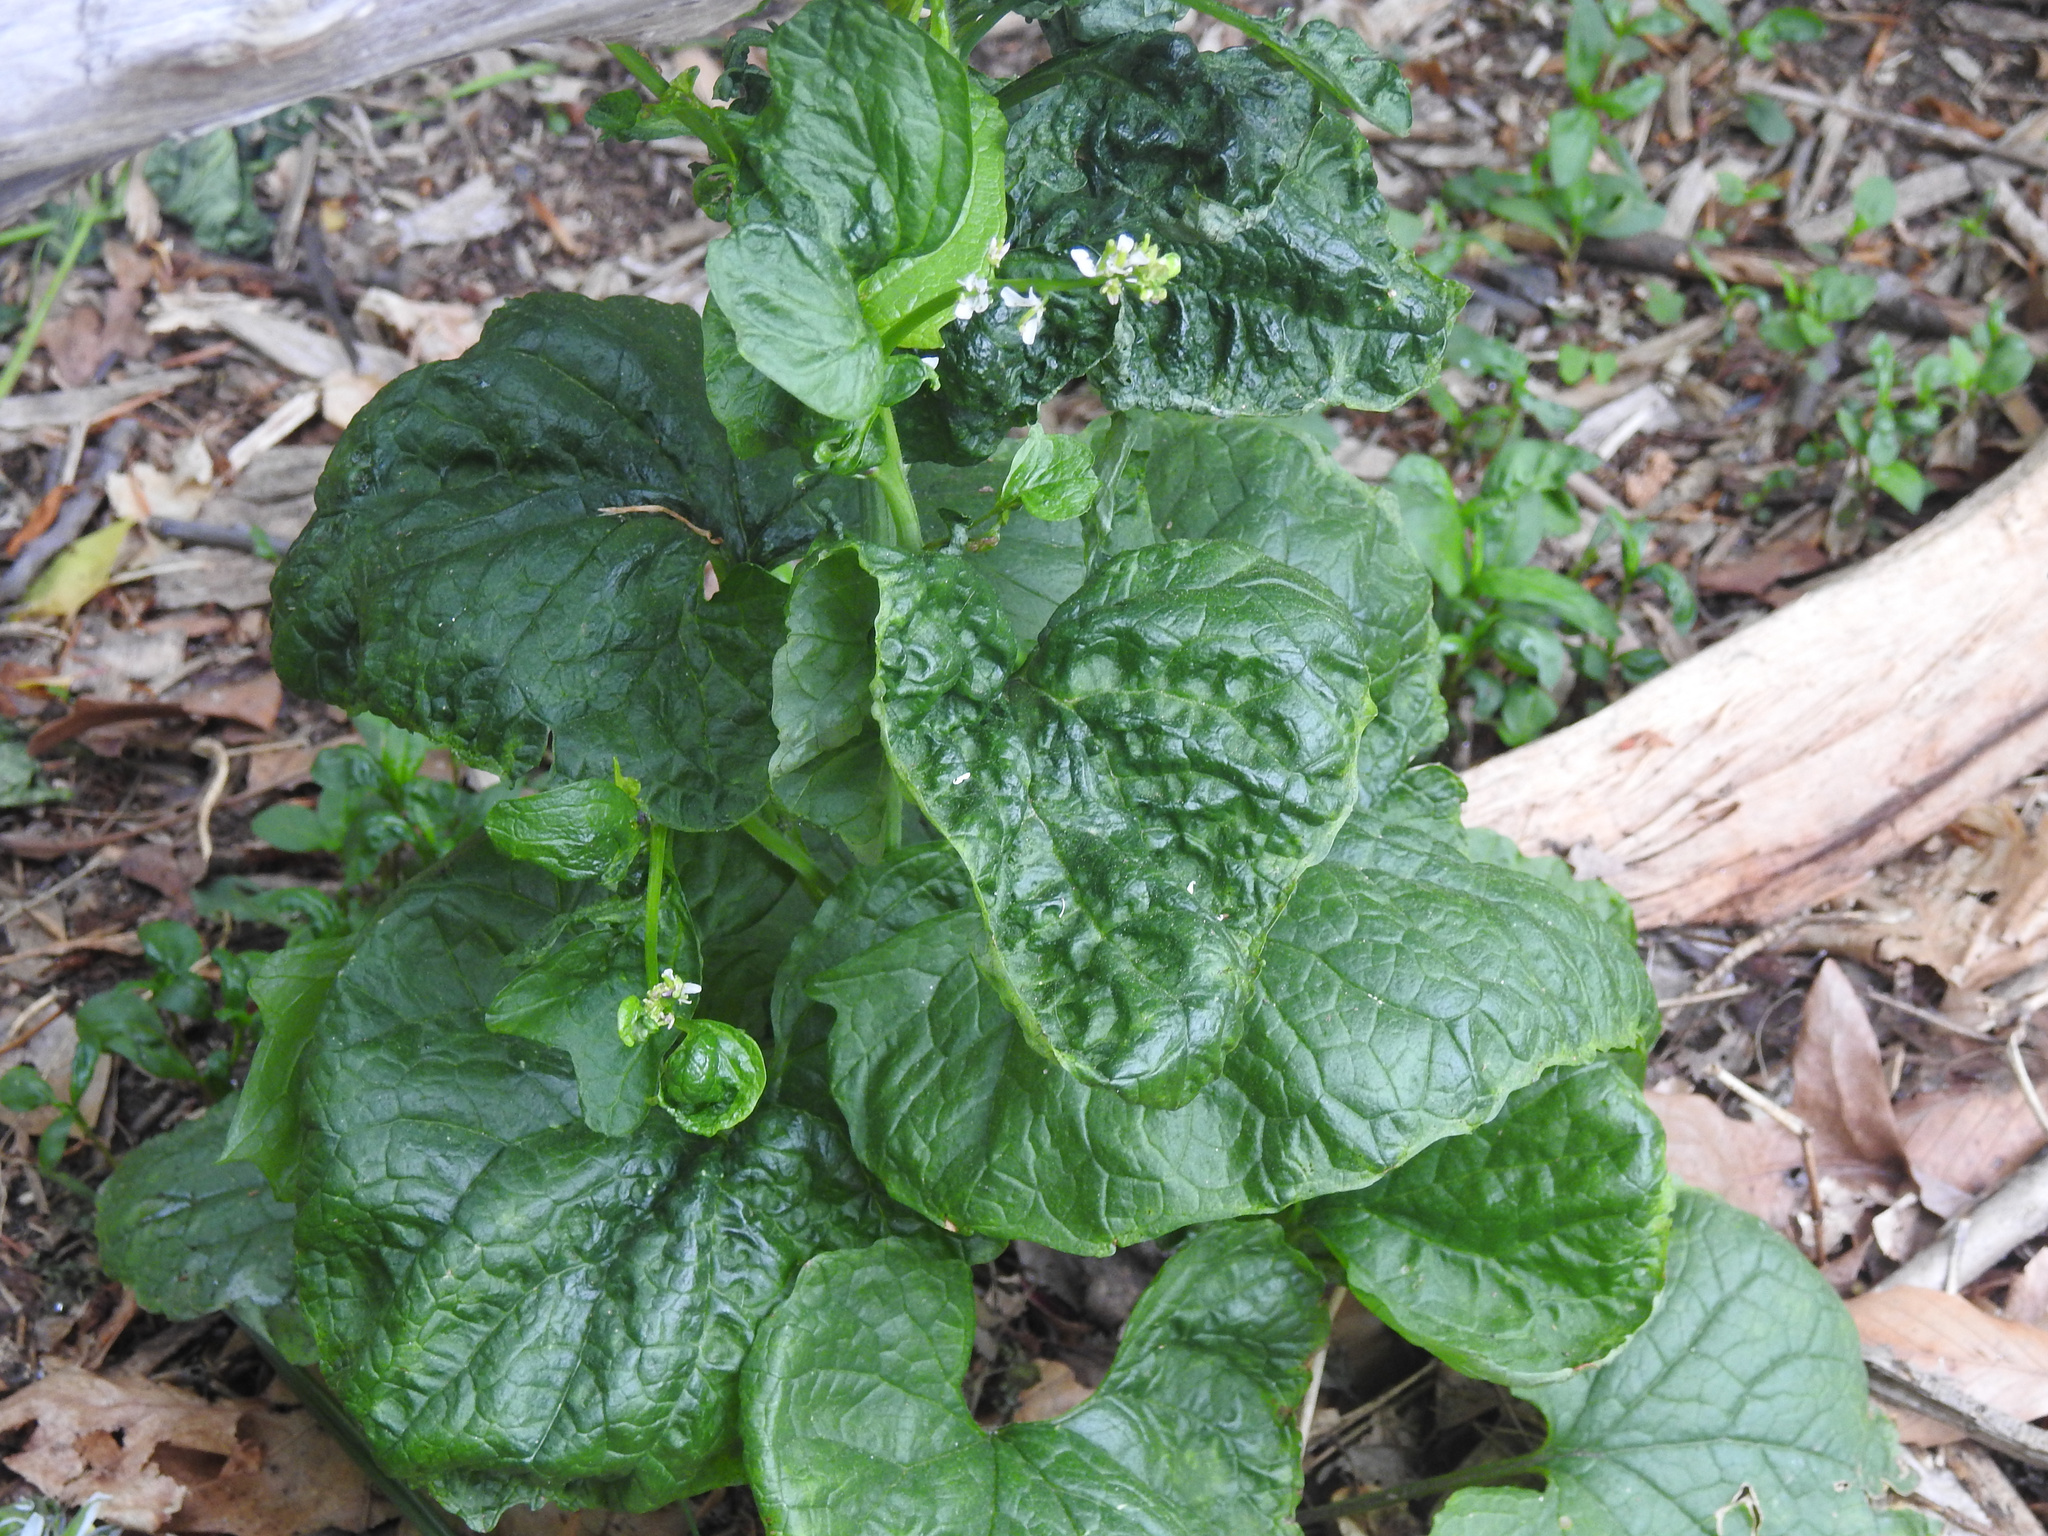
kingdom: Viruses
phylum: Kitrinoviricota
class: Tolucaviricetes
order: Tolivirales
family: Tombusviridae
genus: Betacarmovirus
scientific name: Betacarmovirus brassicae
